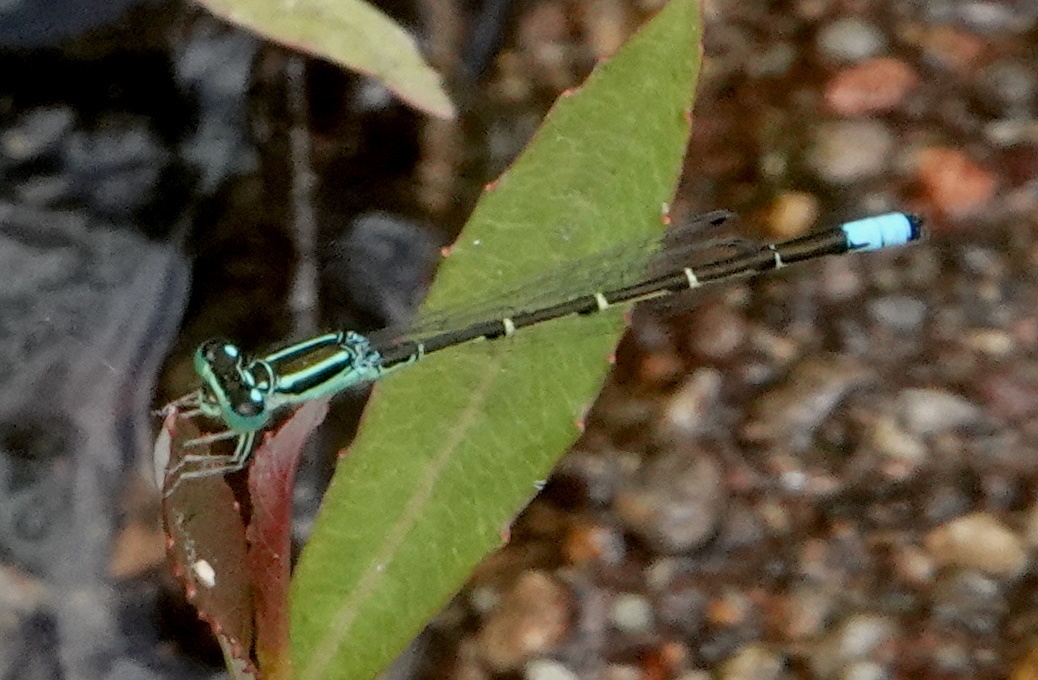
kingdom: Animalia
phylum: Arthropoda
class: Insecta
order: Odonata
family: Coenagrionidae
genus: Ischnura
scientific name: Ischnura demorsa
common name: Mexican forktail
